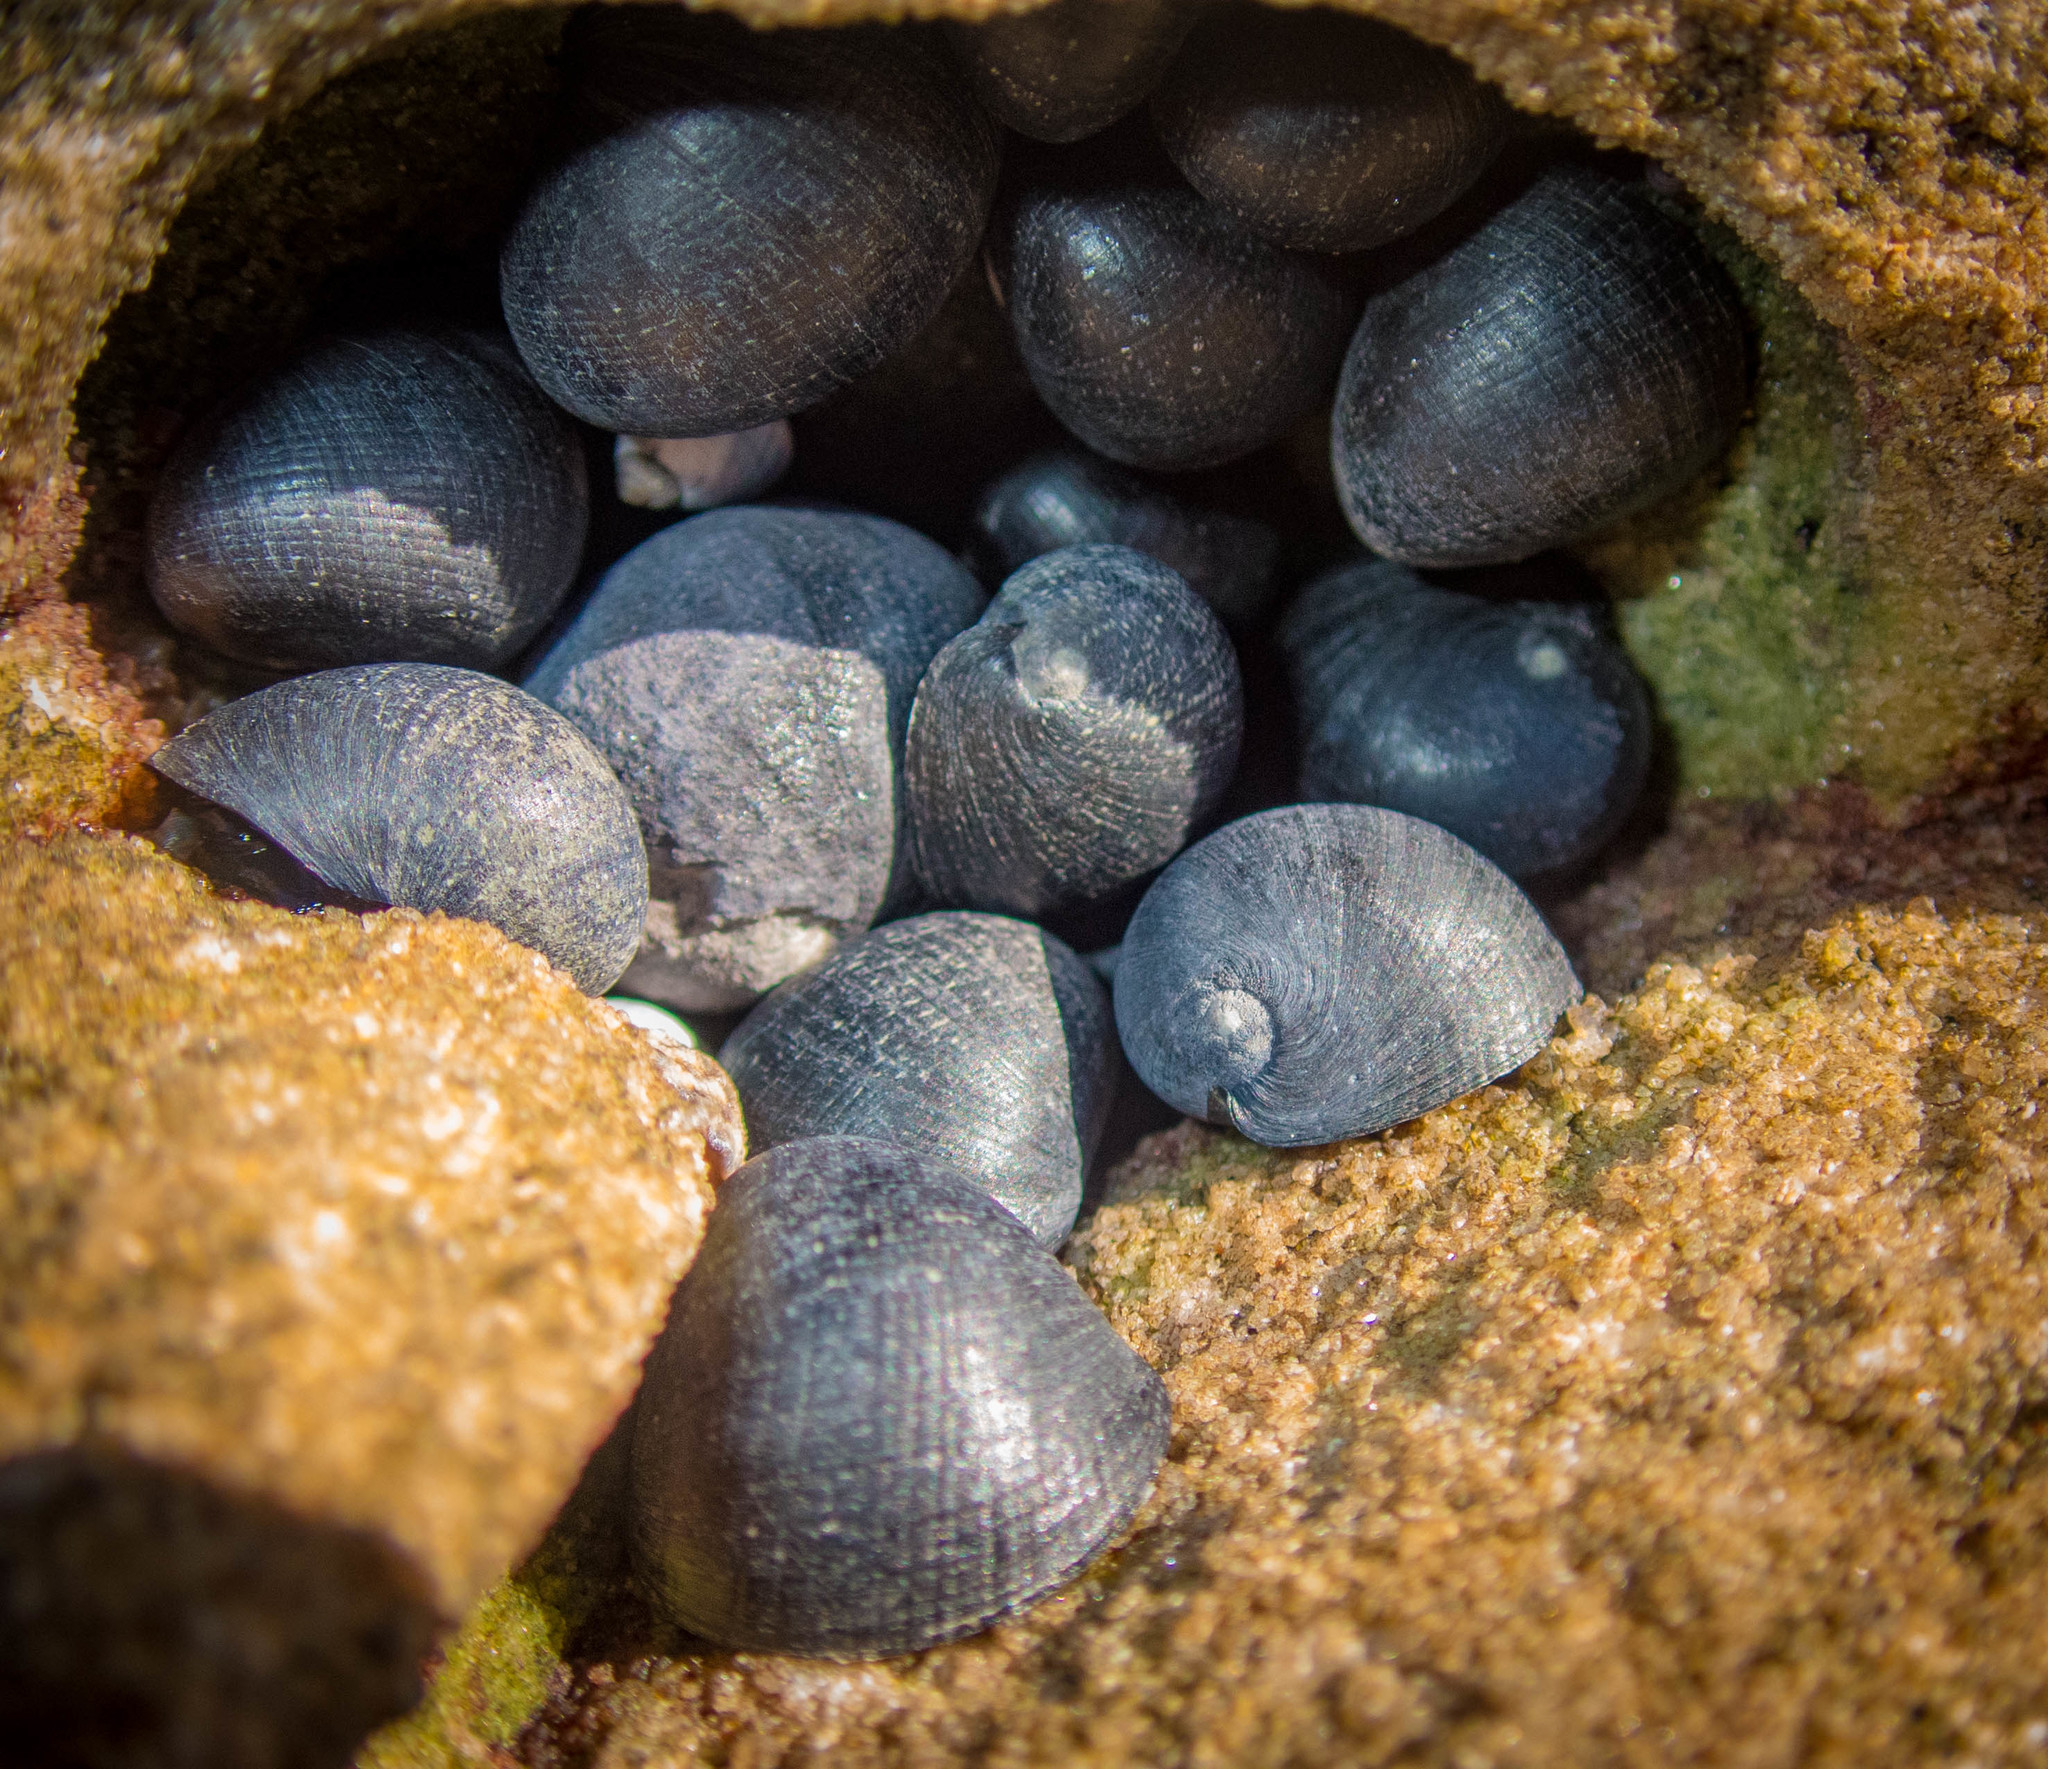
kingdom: Animalia
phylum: Mollusca
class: Gastropoda
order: Cycloneritida
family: Neritidae
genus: Nerita
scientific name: Nerita melanotragus
